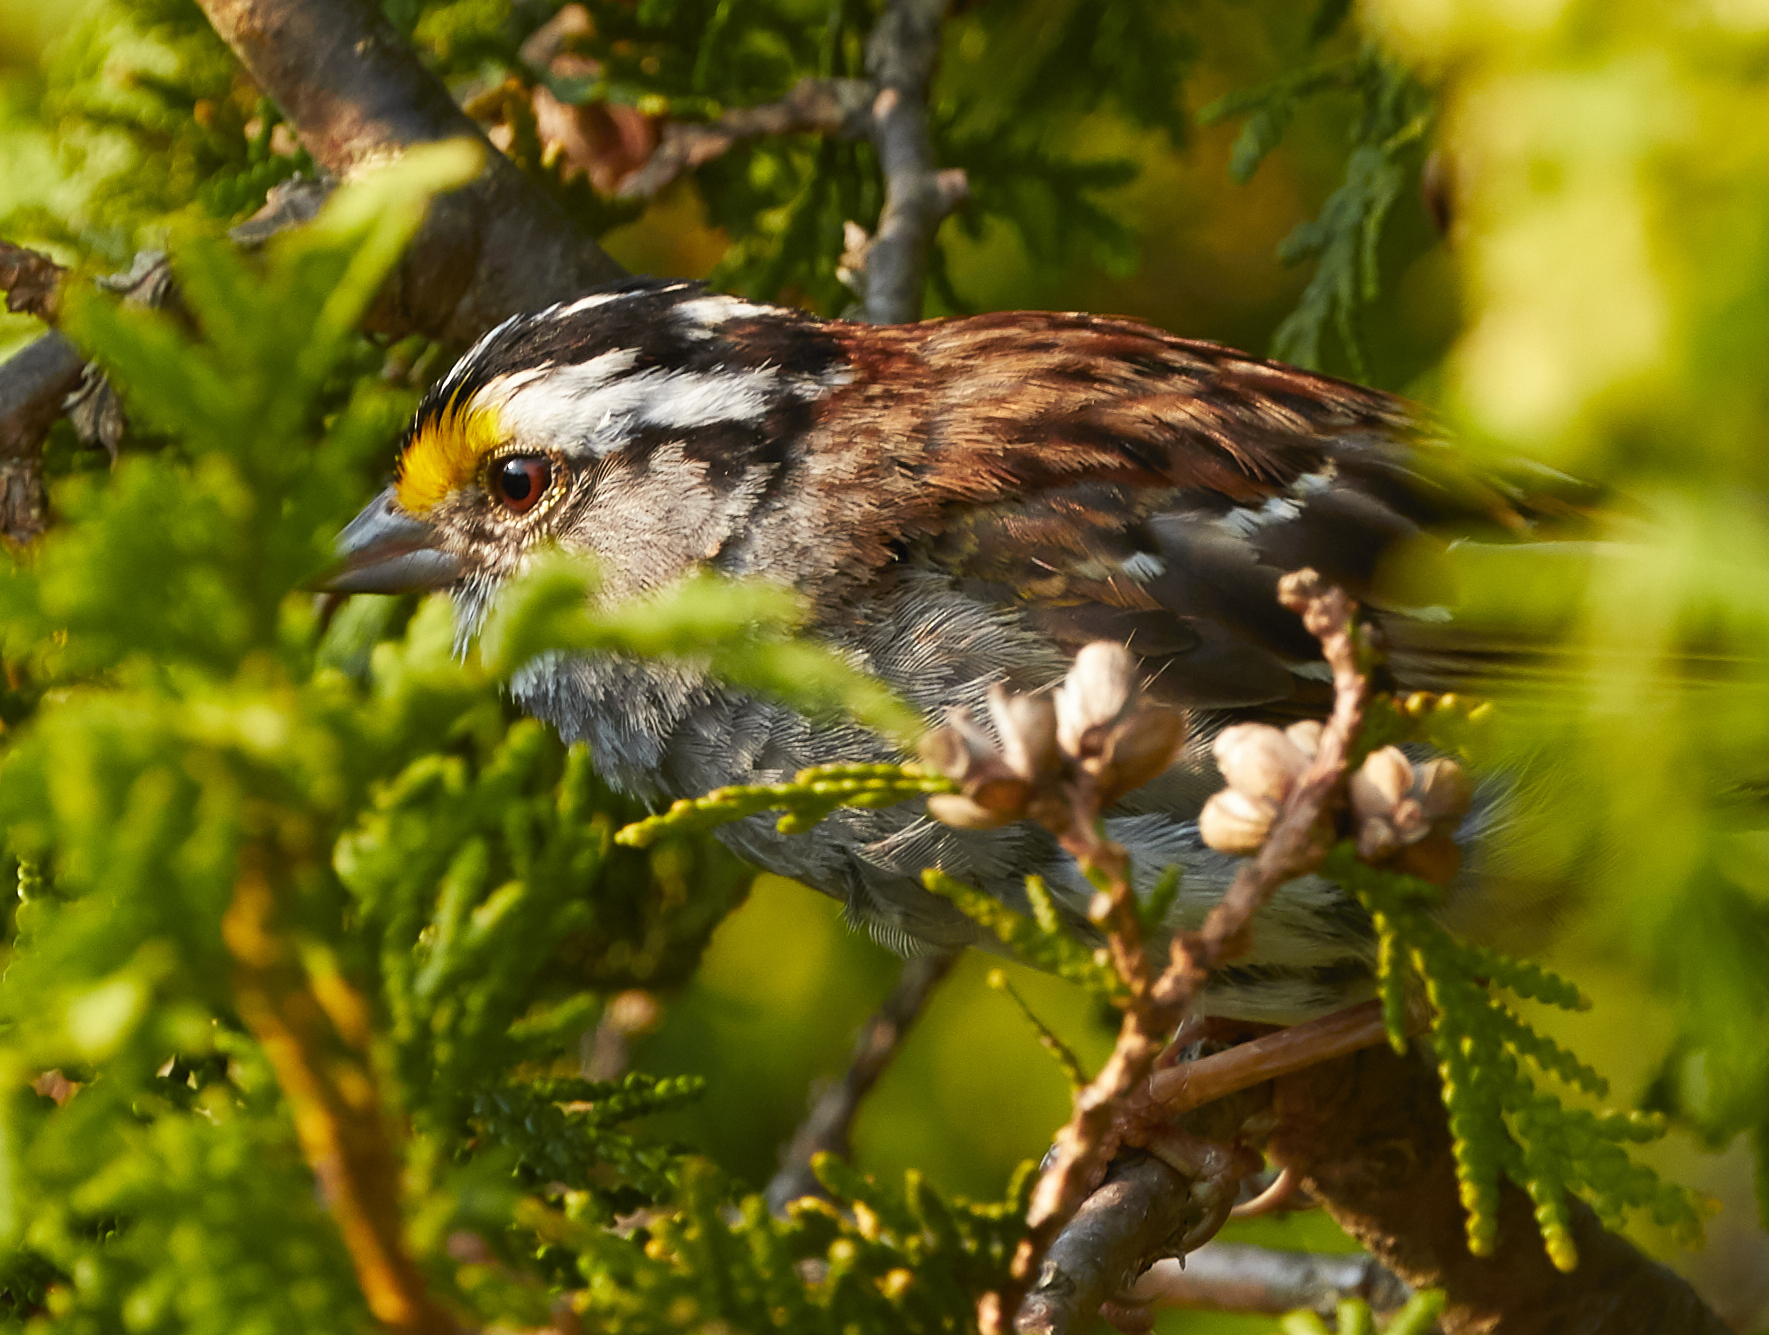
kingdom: Animalia
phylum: Chordata
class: Aves
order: Passeriformes
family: Passerellidae
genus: Zonotrichia
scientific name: Zonotrichia albicollis
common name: White-throated sparrow
